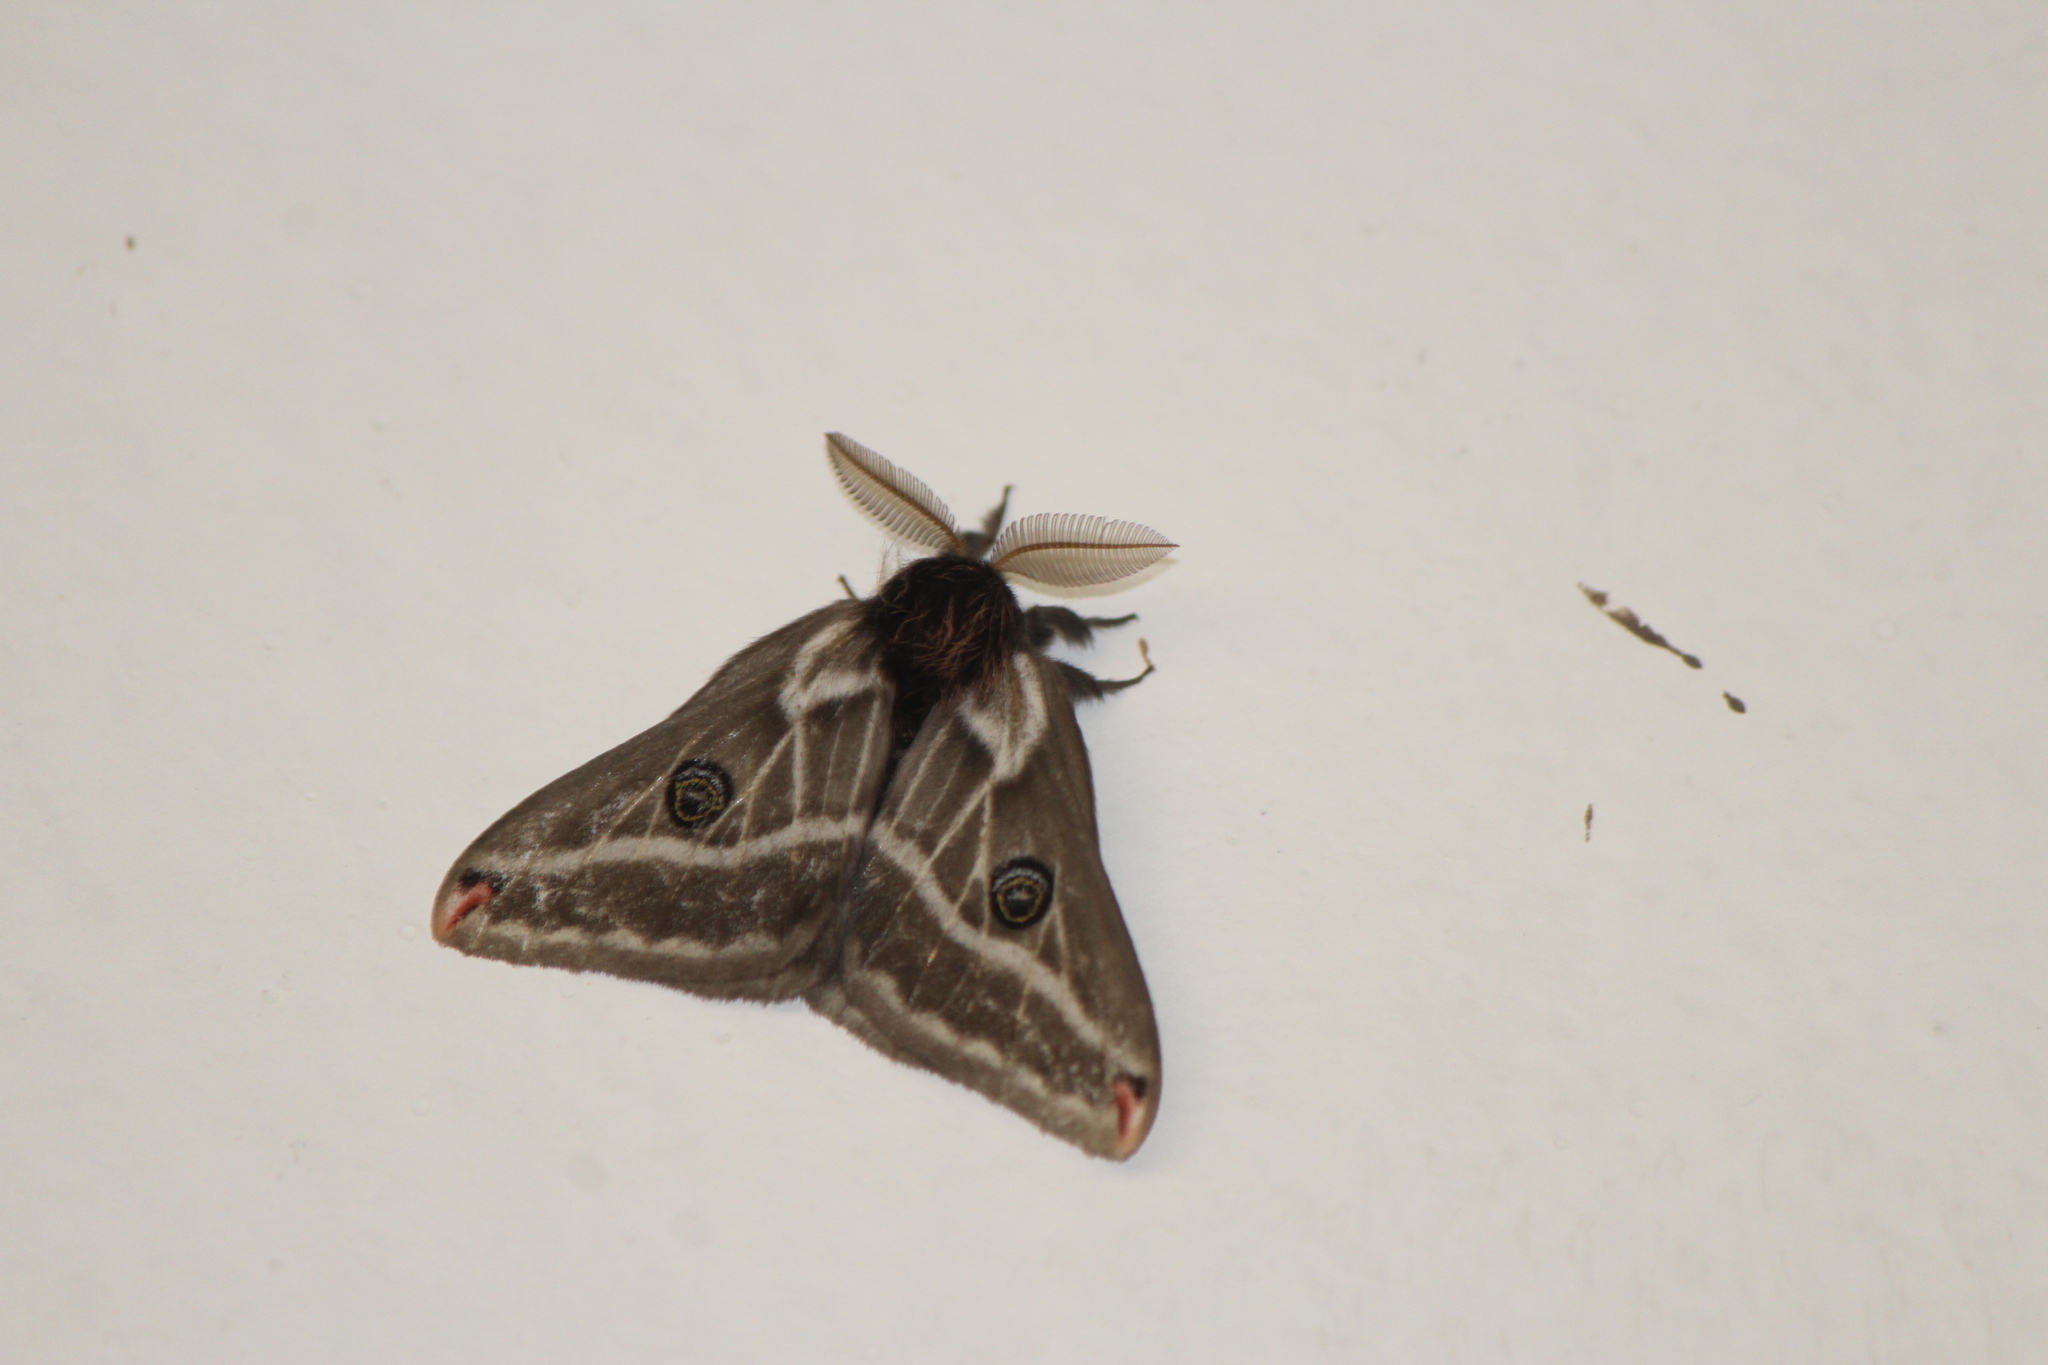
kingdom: Animalia
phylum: Arthropoda
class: Insecta
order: Lepidoptera
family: Saturniidae
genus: Agapema
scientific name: Agapema
